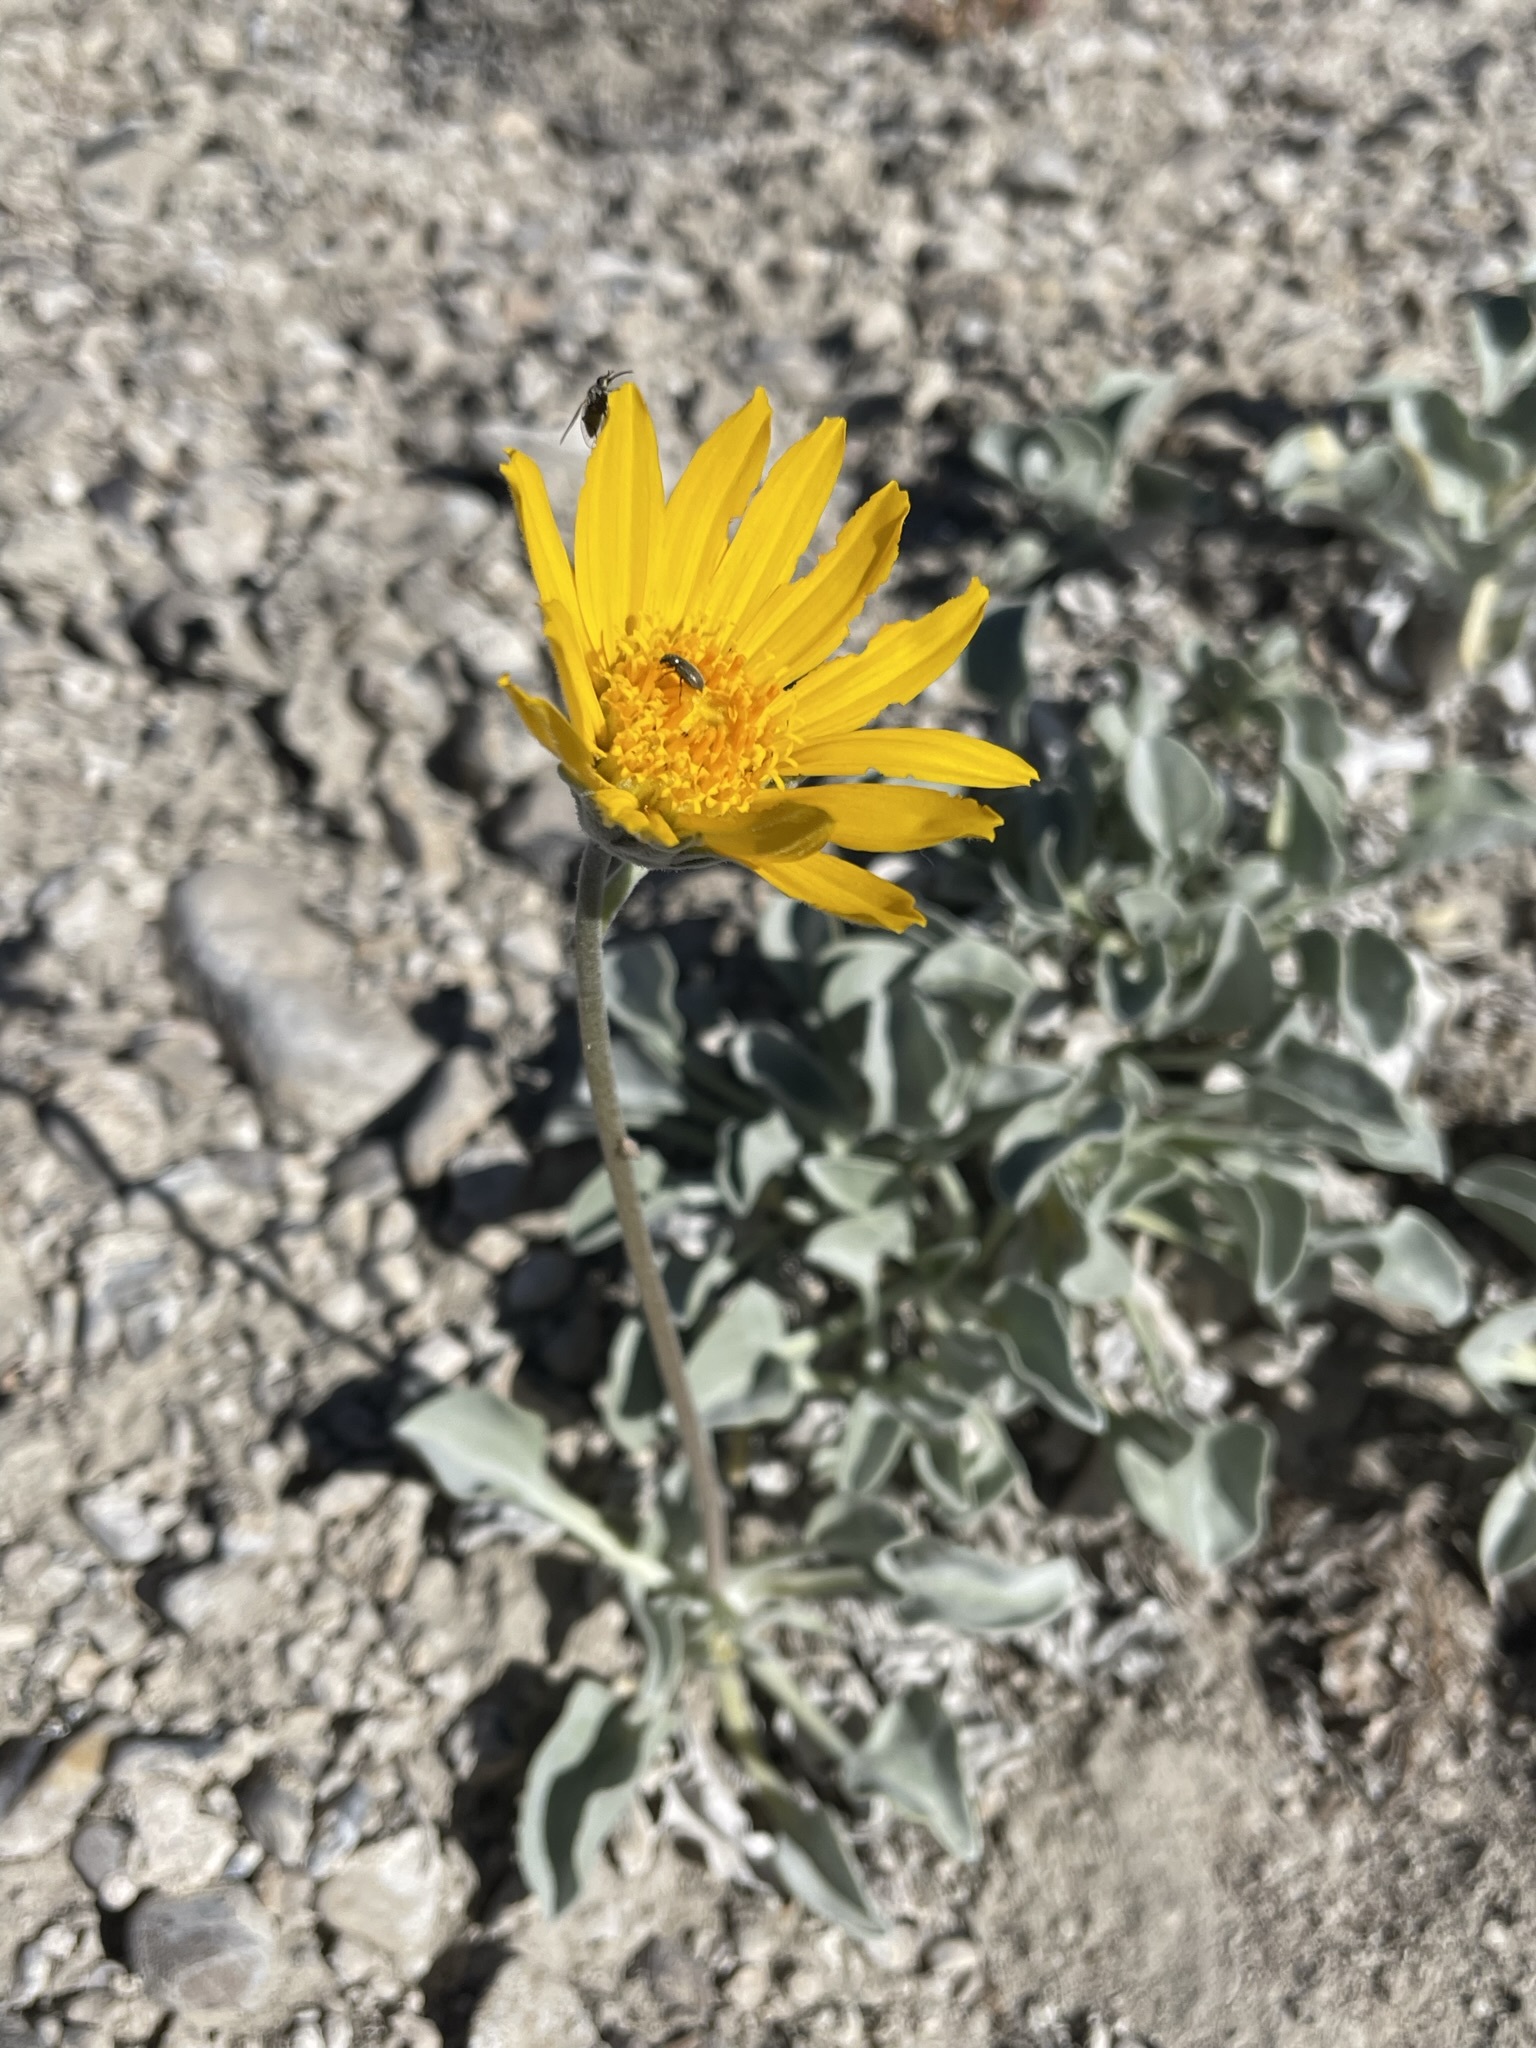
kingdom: Plantae
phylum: Tracheophyta
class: Magnoliopsida
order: Asterales
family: Asteraceae
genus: Enceliopsis
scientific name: Enceliopsis nudicaulis
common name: Naked-stem daisy
